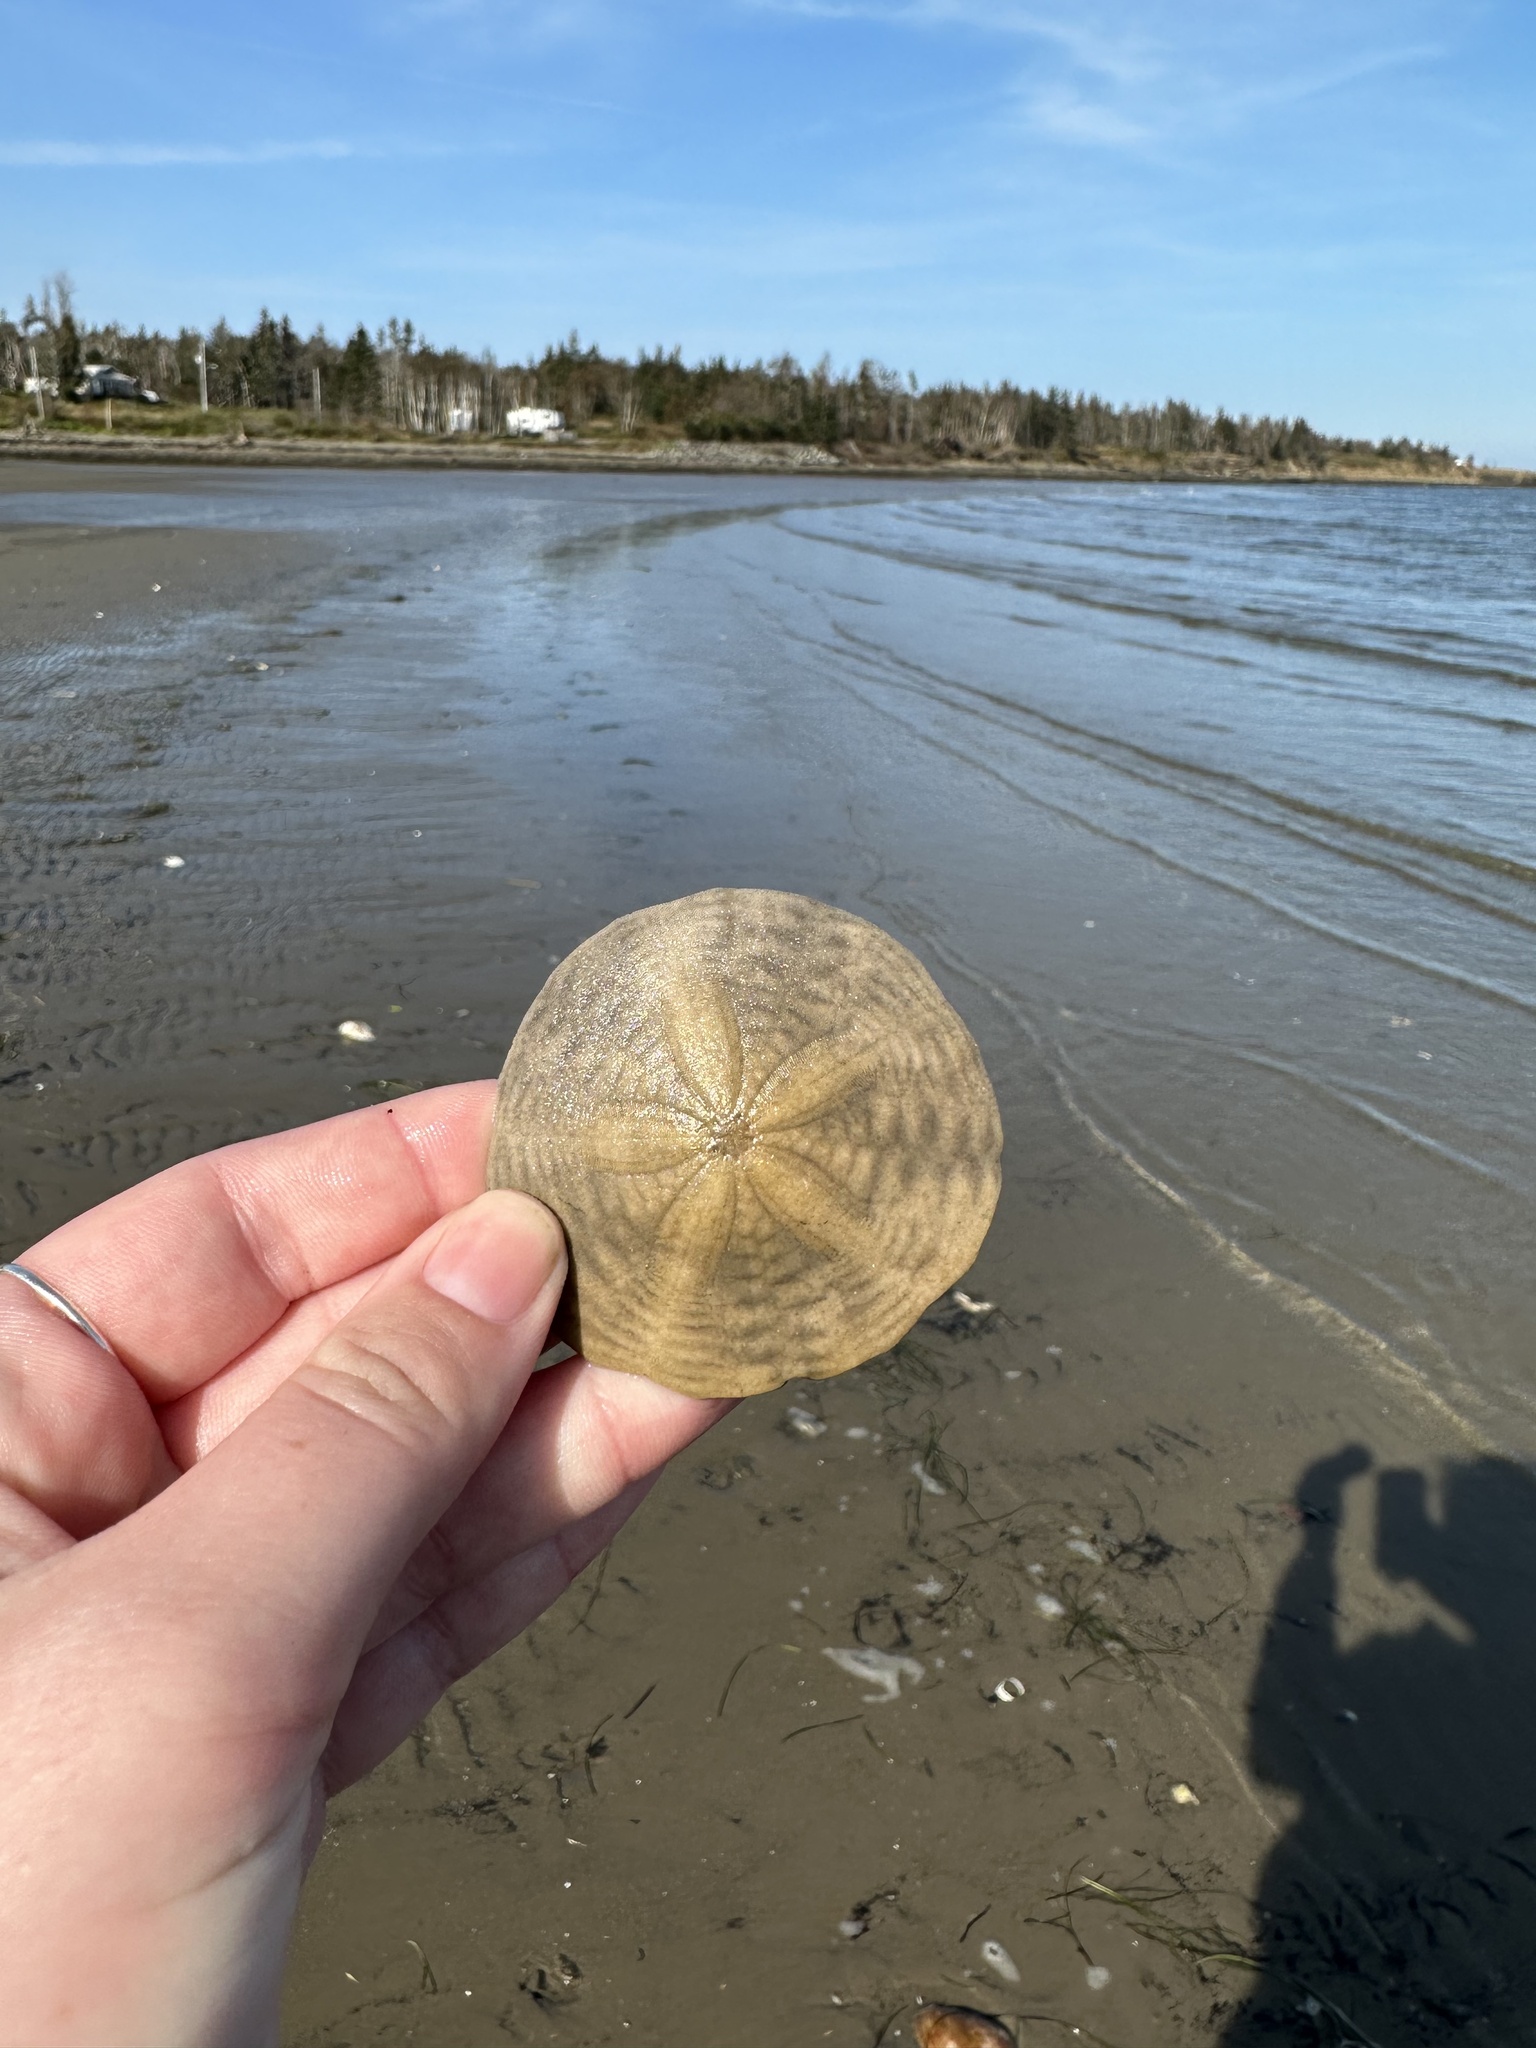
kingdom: Animalia
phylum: Echinodermata
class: Echinoidea
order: Echinolampadacea
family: Echinarachniidae
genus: Echinarachnius
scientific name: Echinarachnius parma
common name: Common sand dollar
